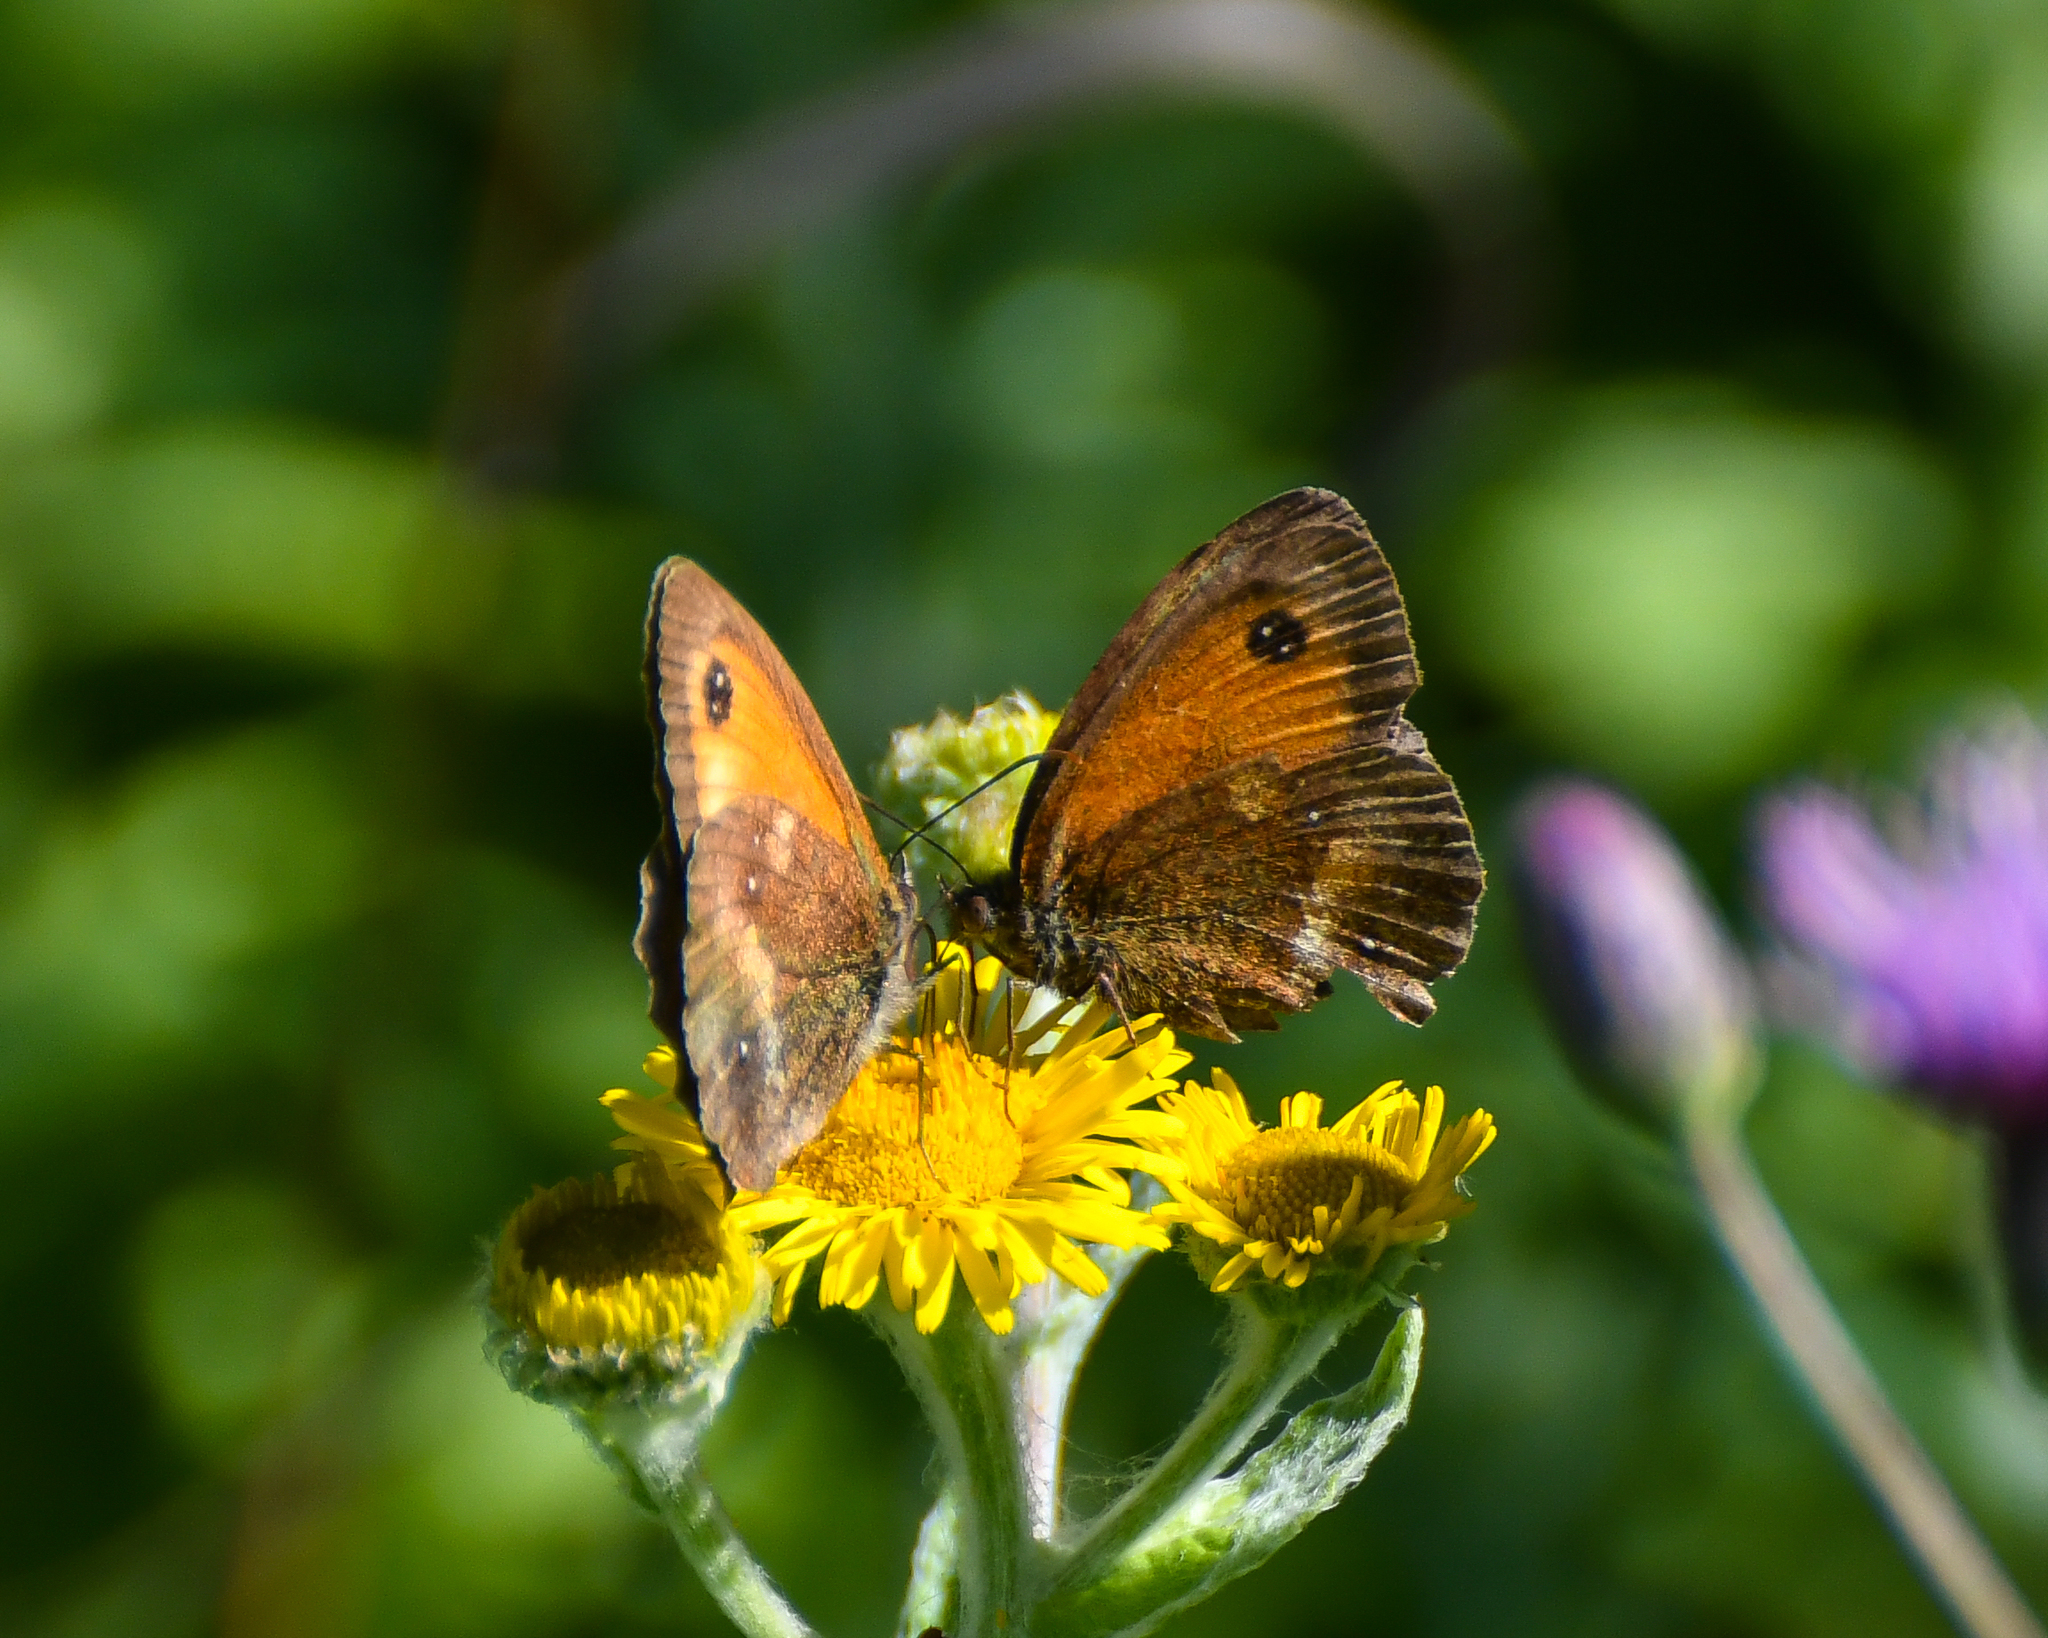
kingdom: Animalia
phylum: Arthropoda
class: Insecta
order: Lepidoptera
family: Nymphalidae
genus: Pyronia
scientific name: Pyronia tithonus
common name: Gatekeeper
